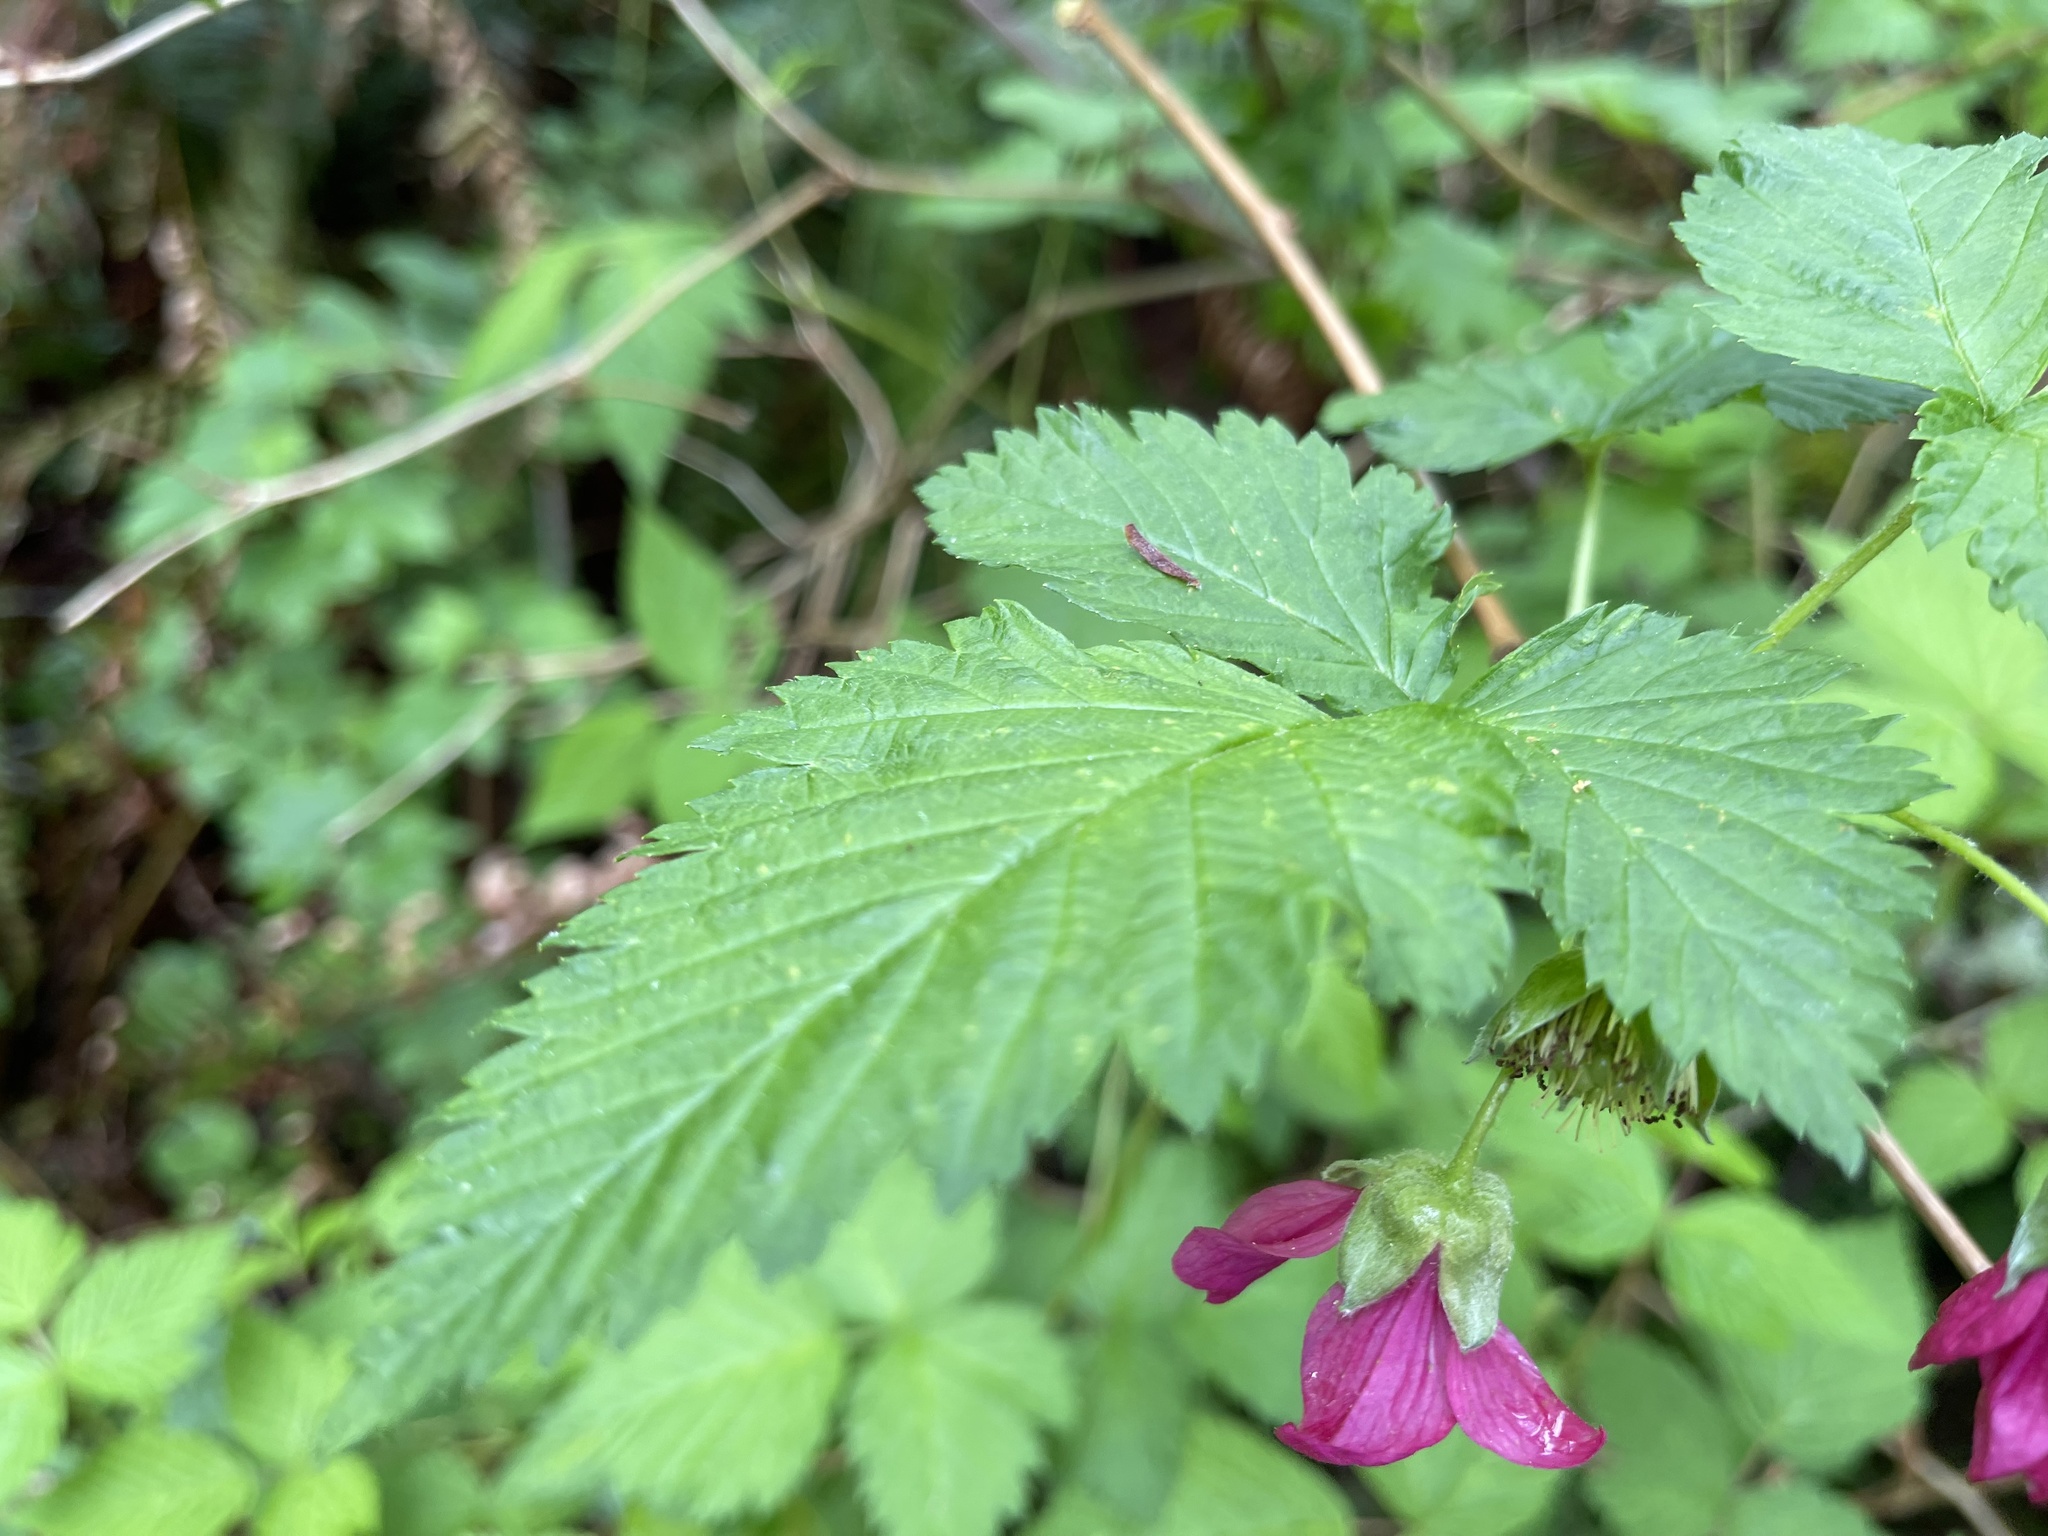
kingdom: Plantae
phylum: Tracheophyta
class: Magnoliopsida
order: Rosales
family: Rosaceae
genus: Rubus
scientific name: Rubus spectabilis
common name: Salmonberry
